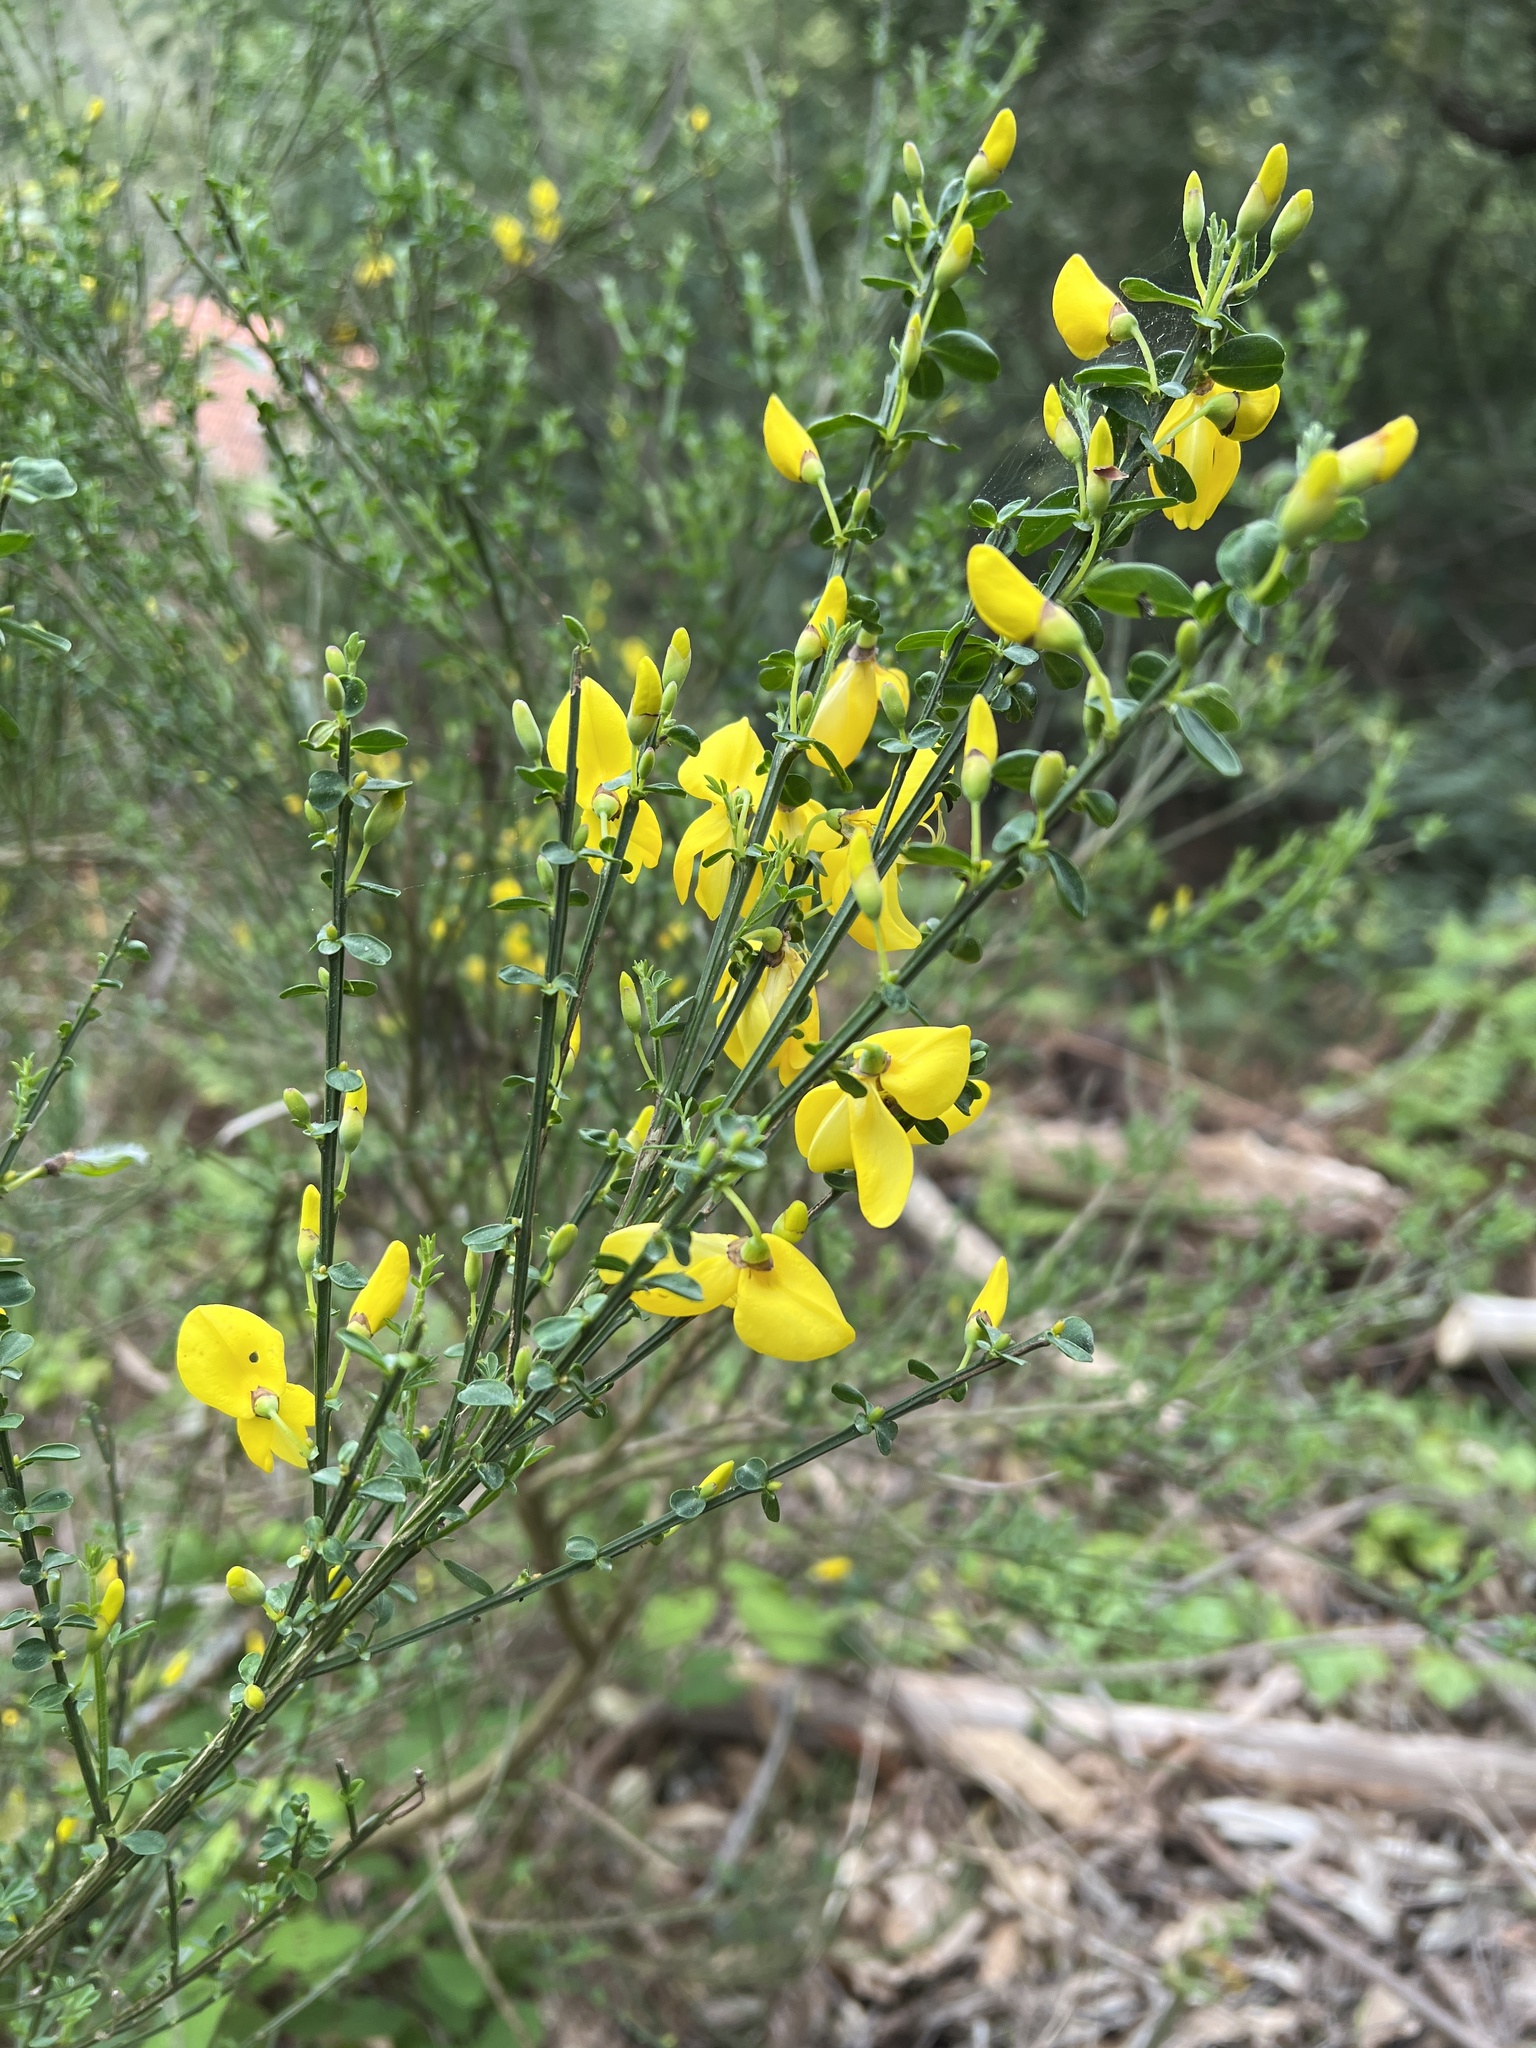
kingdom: Plantae
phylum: Tracheophyta
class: Magnoliopsida
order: Fabales
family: Fabaceae
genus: Cytisus
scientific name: Cytisus scoparius
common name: Scotch broom
